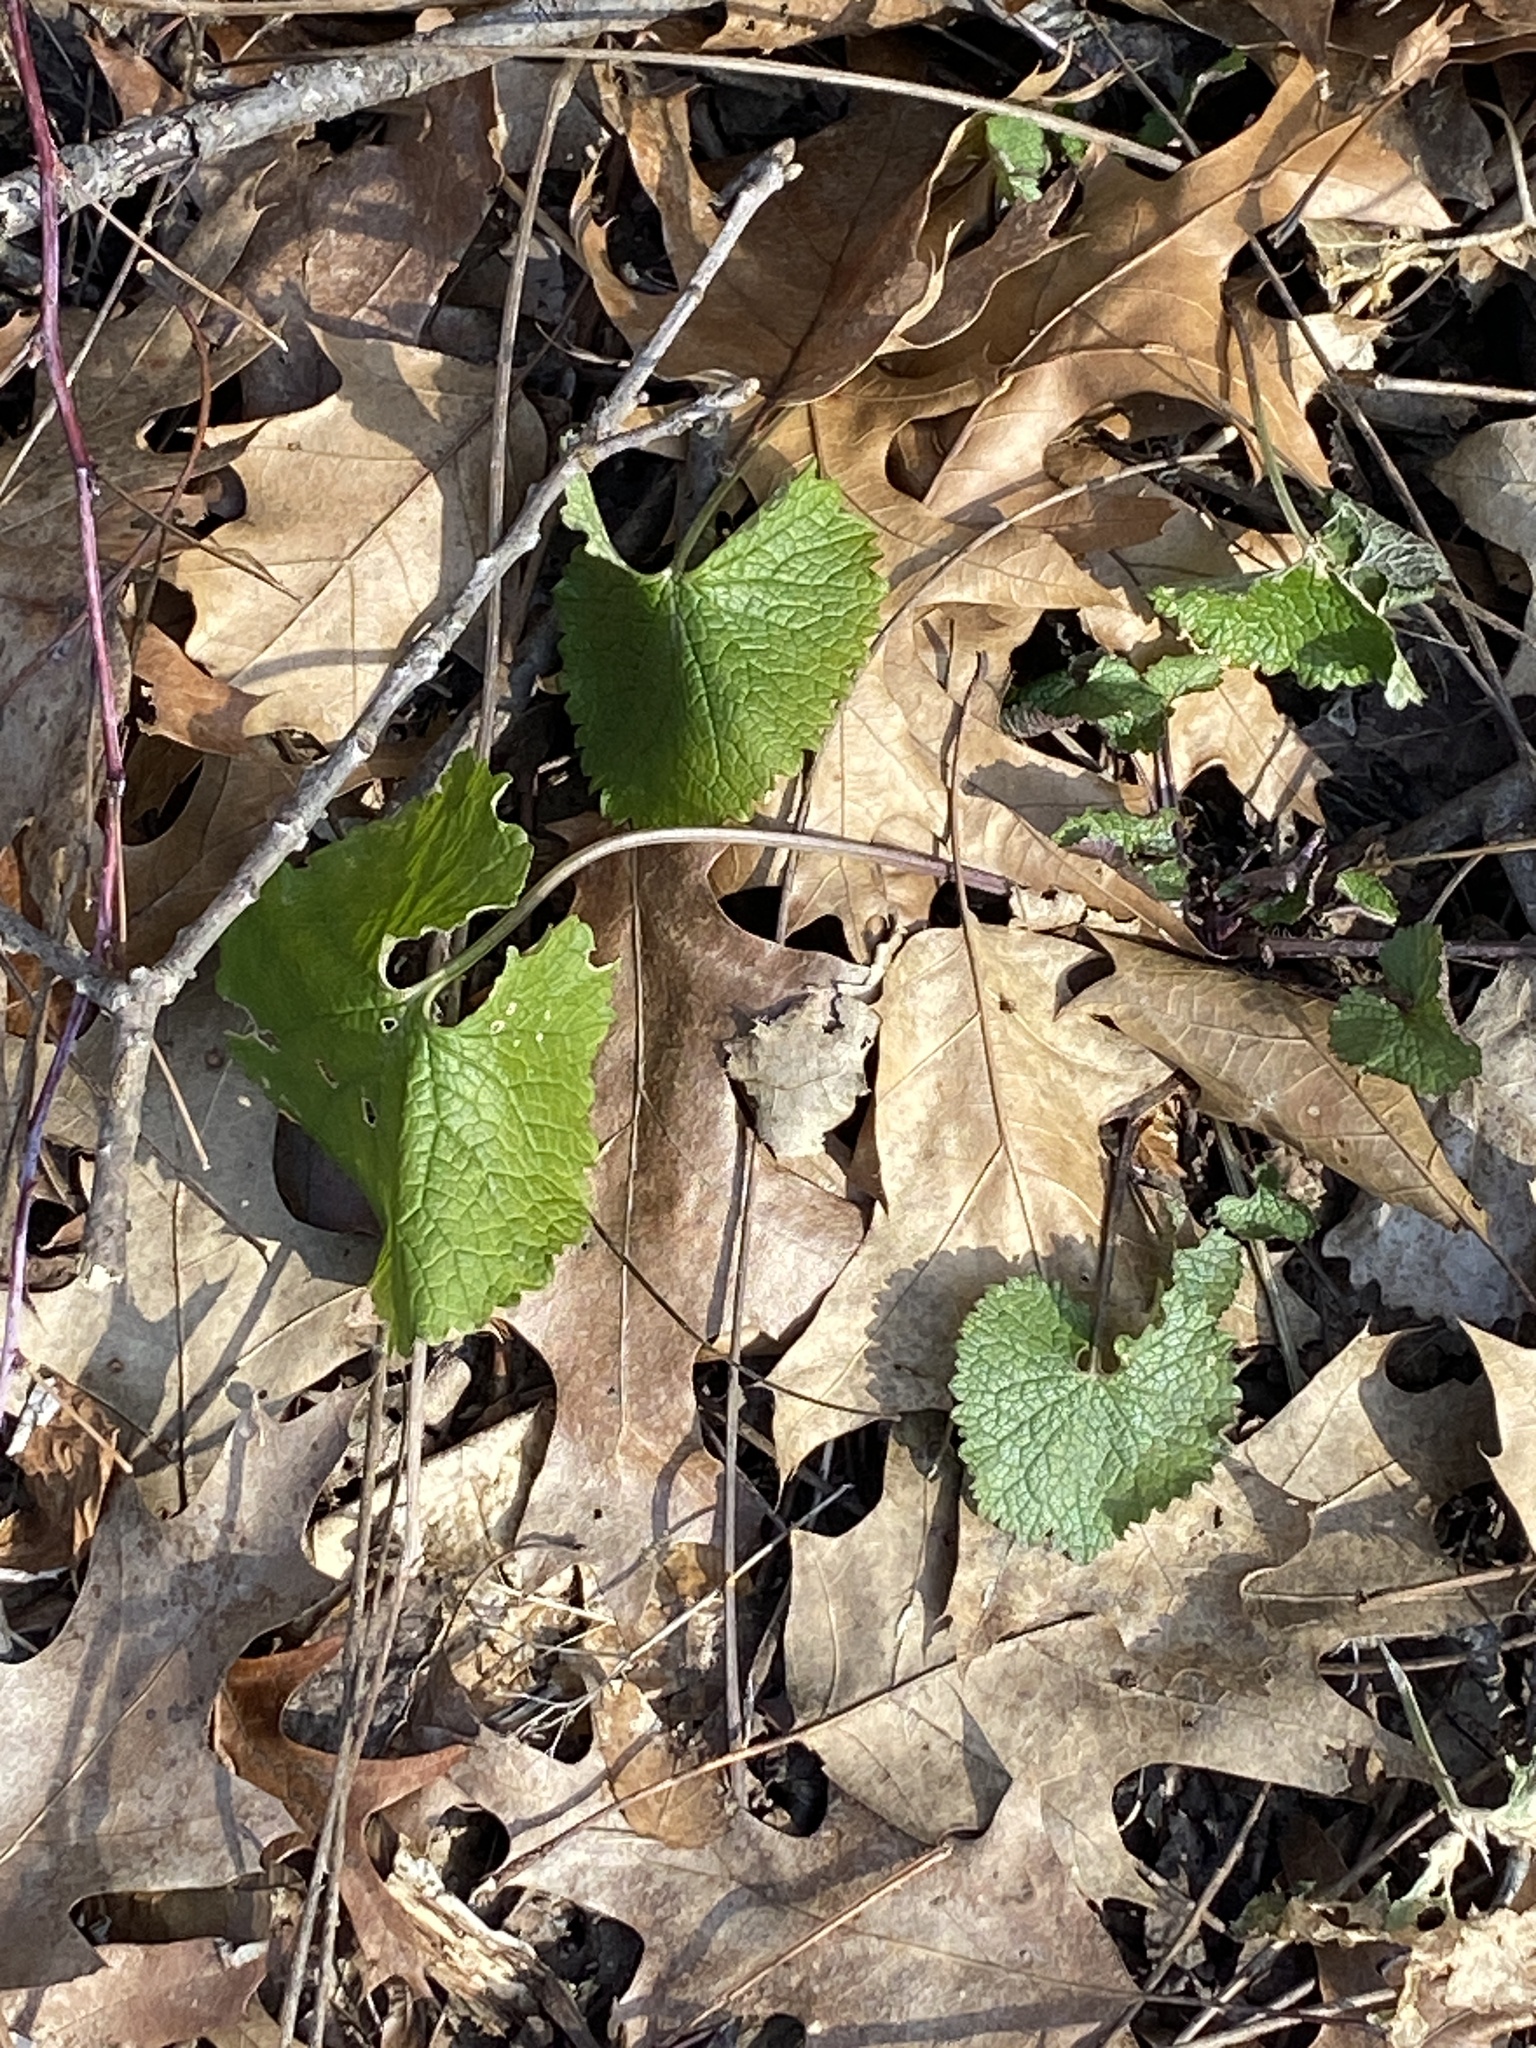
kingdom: Plantae
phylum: Tracheophyta
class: Magnoliopsida
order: Brassicales
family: Brassicaceae
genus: Alliaria
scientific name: Alliaria petiolata
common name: Garlic mustard
